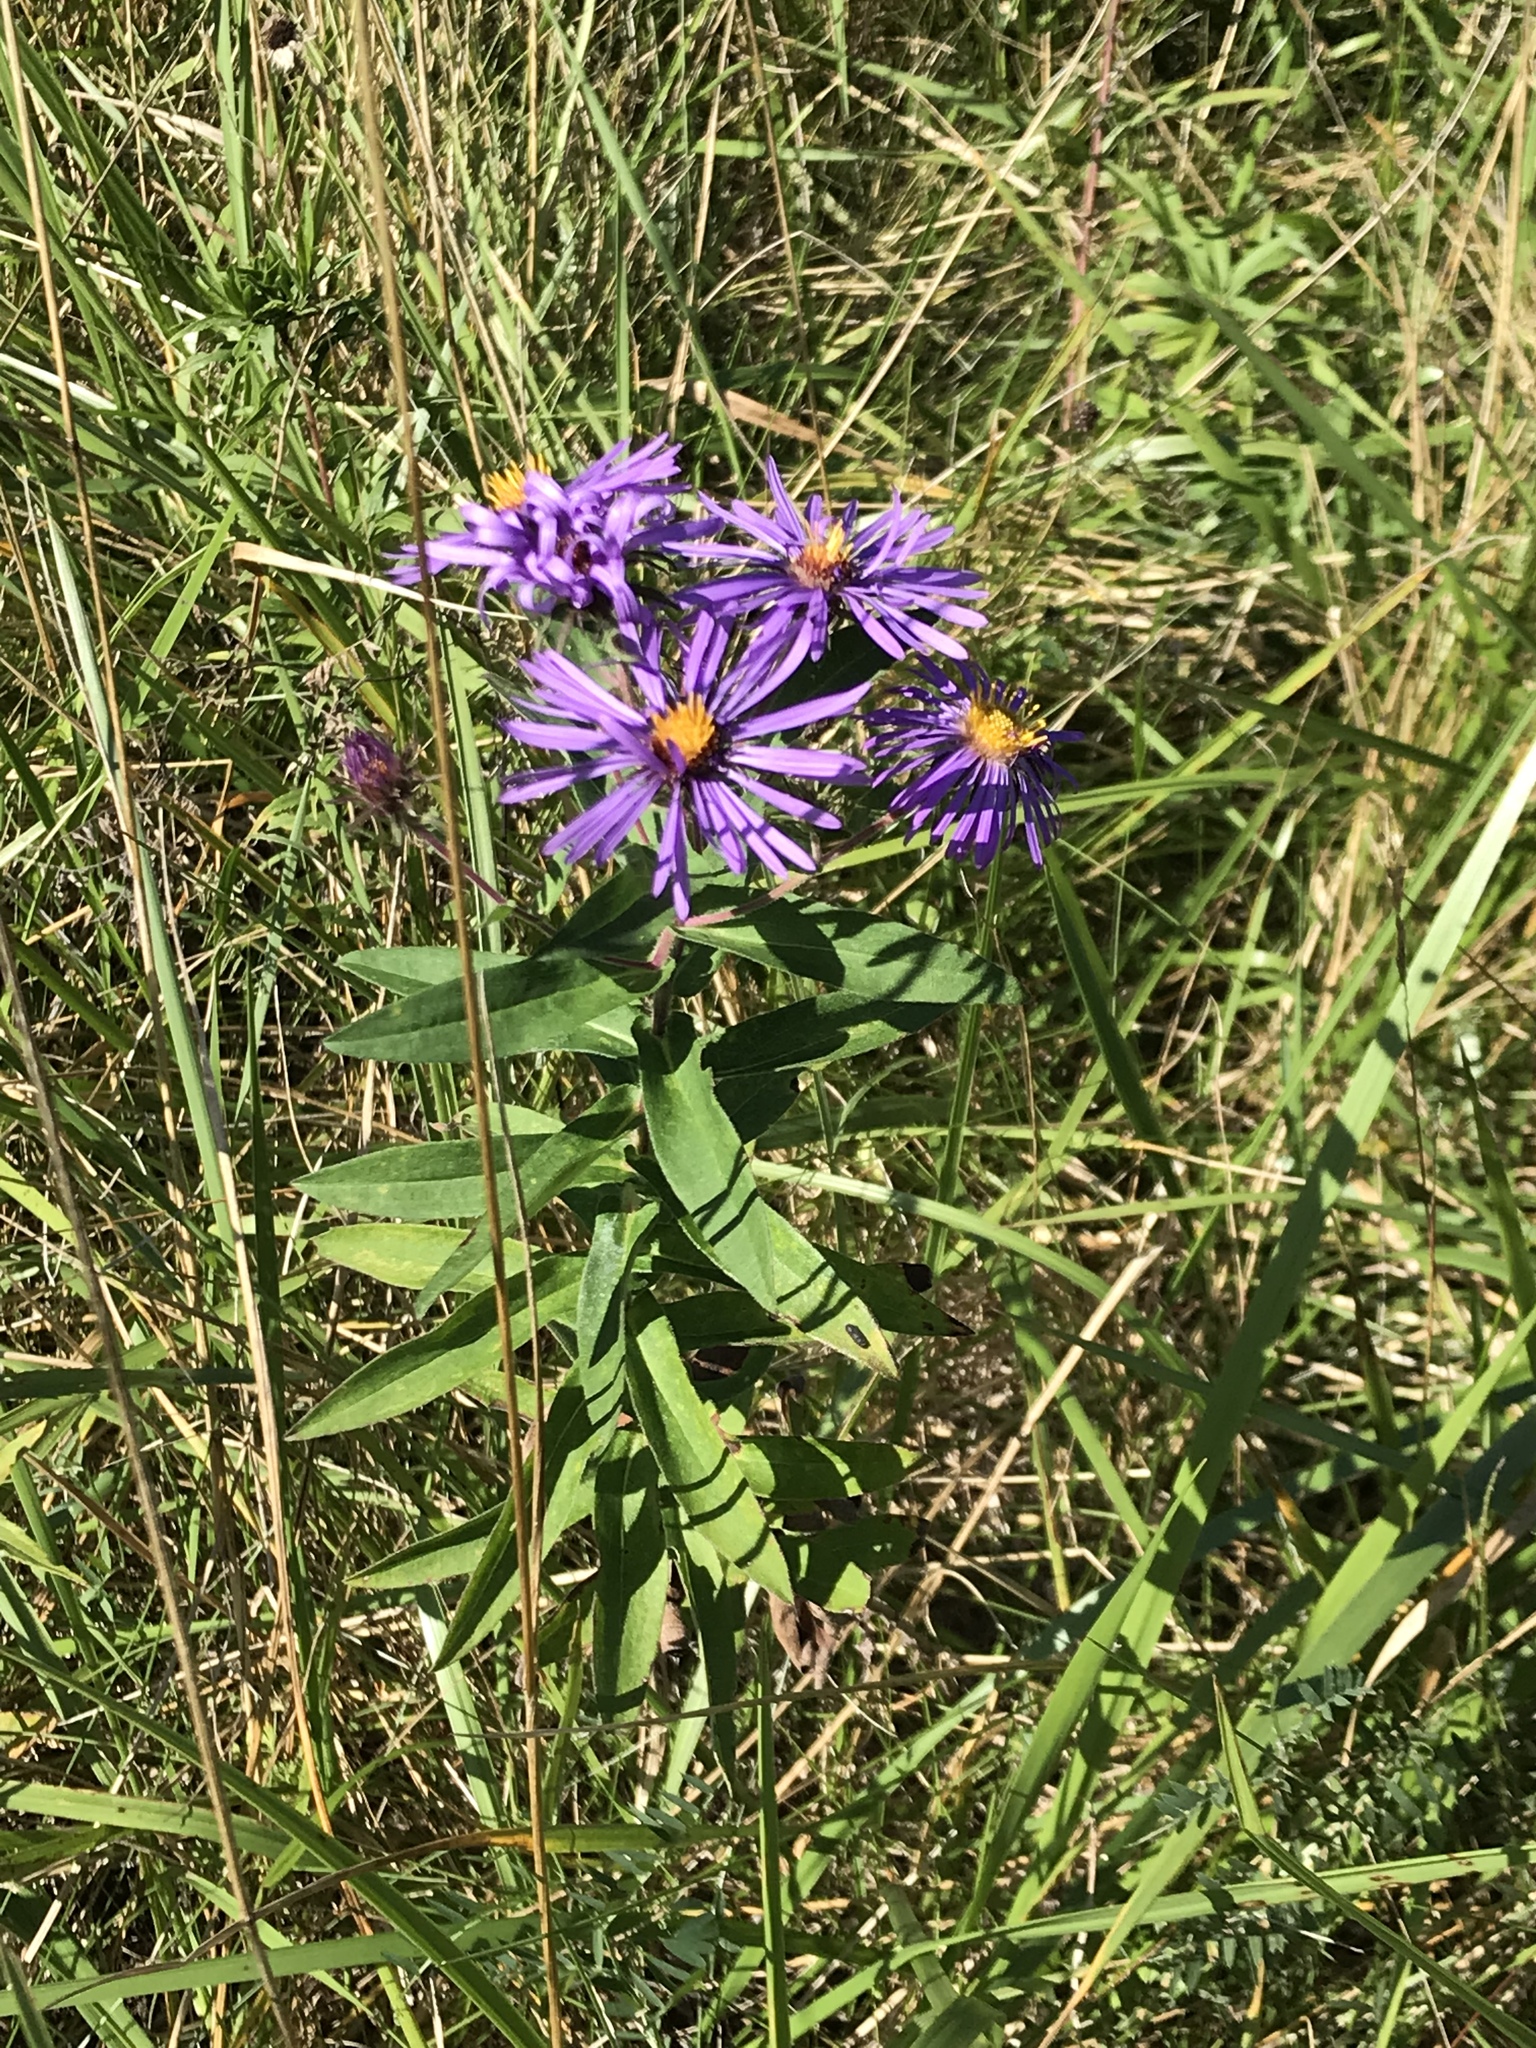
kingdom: Plantae
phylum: Tracheophyta
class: Magnoliopsida
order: Asterales
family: Asteraceae
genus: Symphyotrichum
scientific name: Symphyotrichum novae-angliae
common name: Michaelmas daisy
